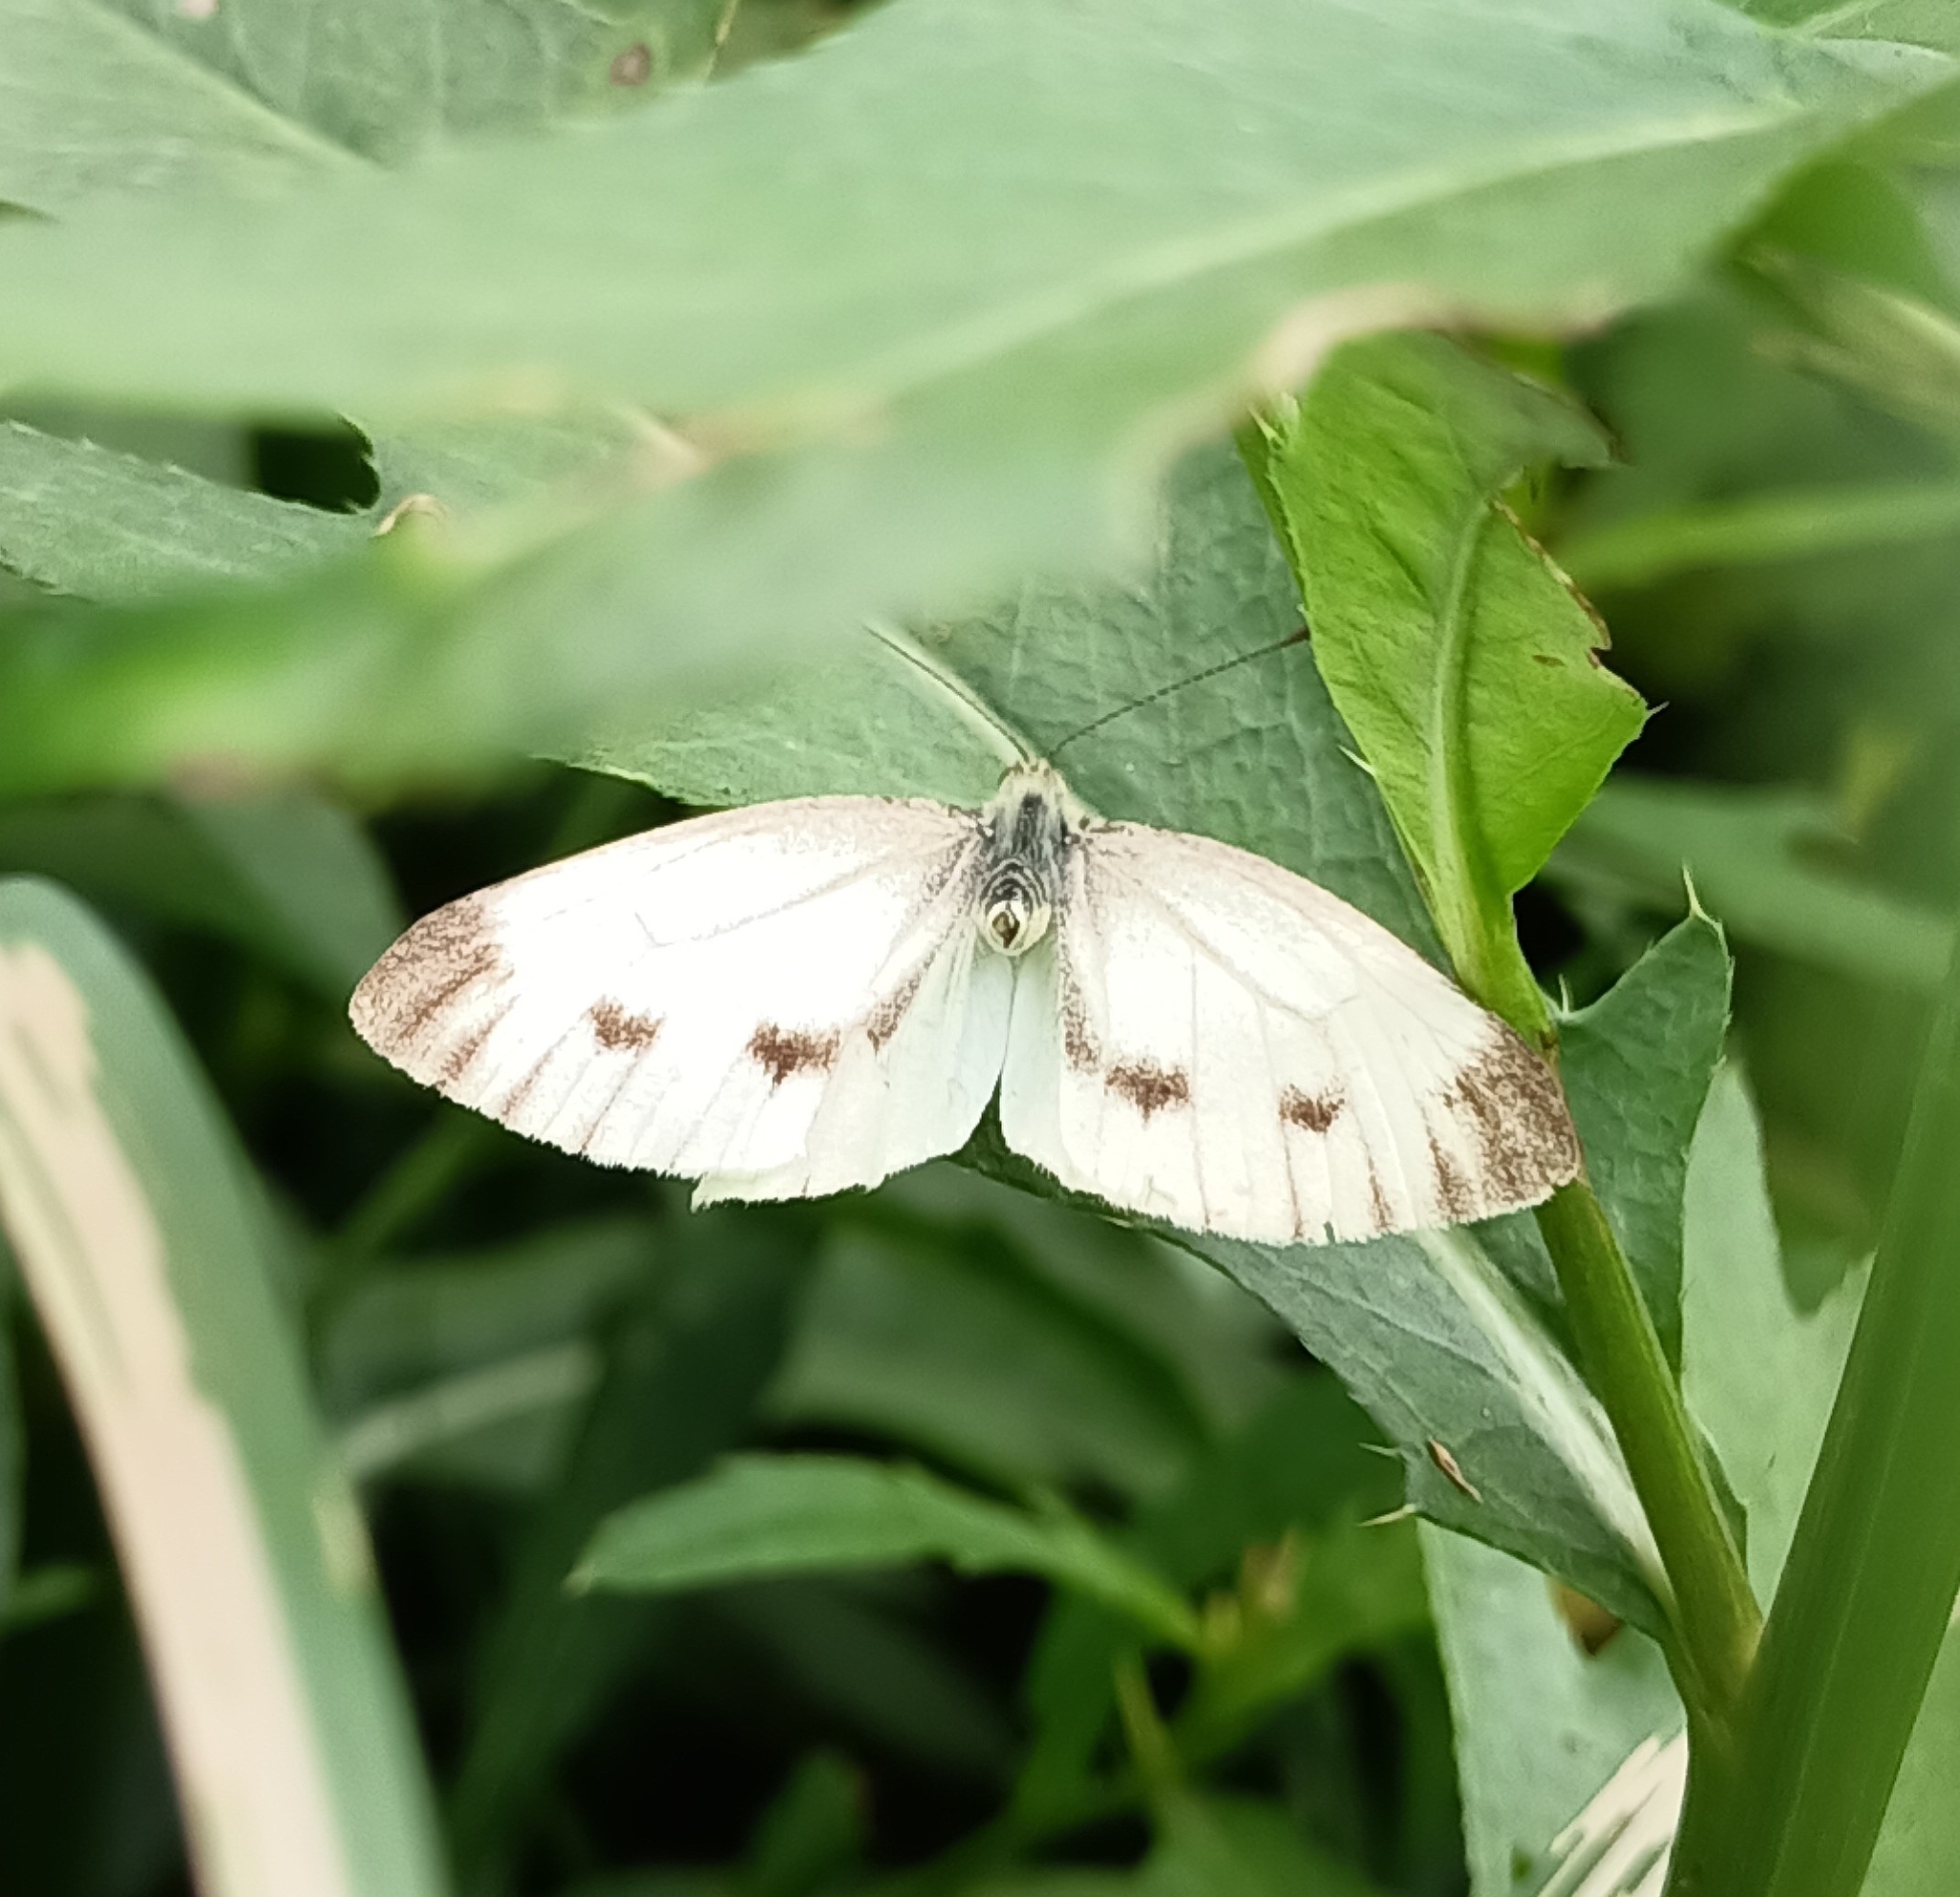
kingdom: Animalia
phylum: Arthropoda
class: Insecta
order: Lepidoptera
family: Pieridae
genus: Pieris
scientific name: Pieris napi
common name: Green-veined white
